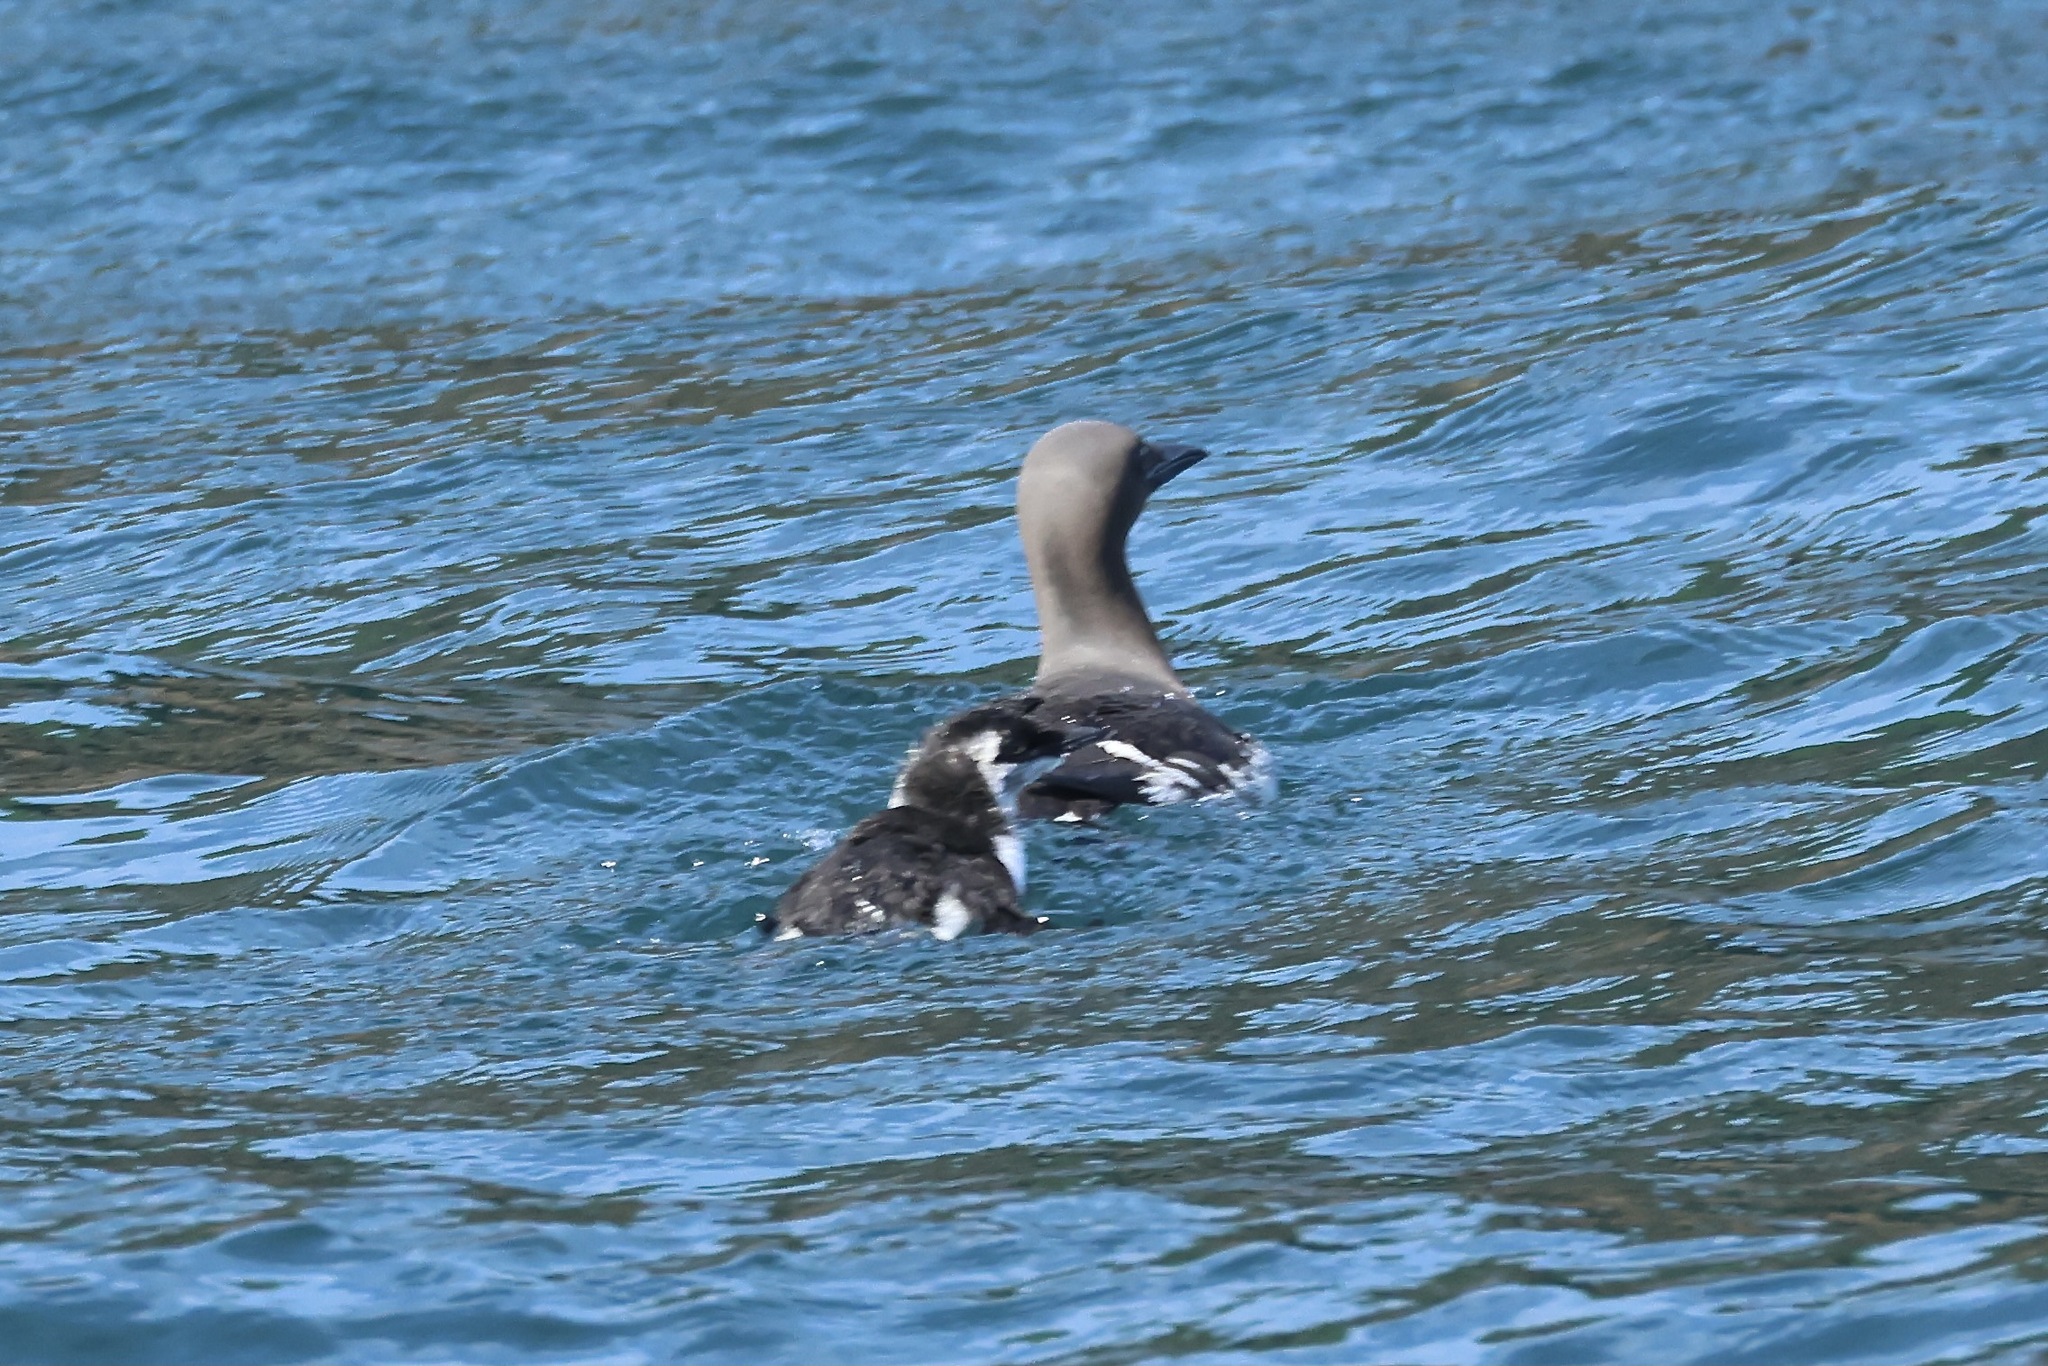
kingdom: Animalia
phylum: Chordata
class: Aves
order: Charadriiformes
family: Alcidae
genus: Uria
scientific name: Uria aalge
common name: Common murre
